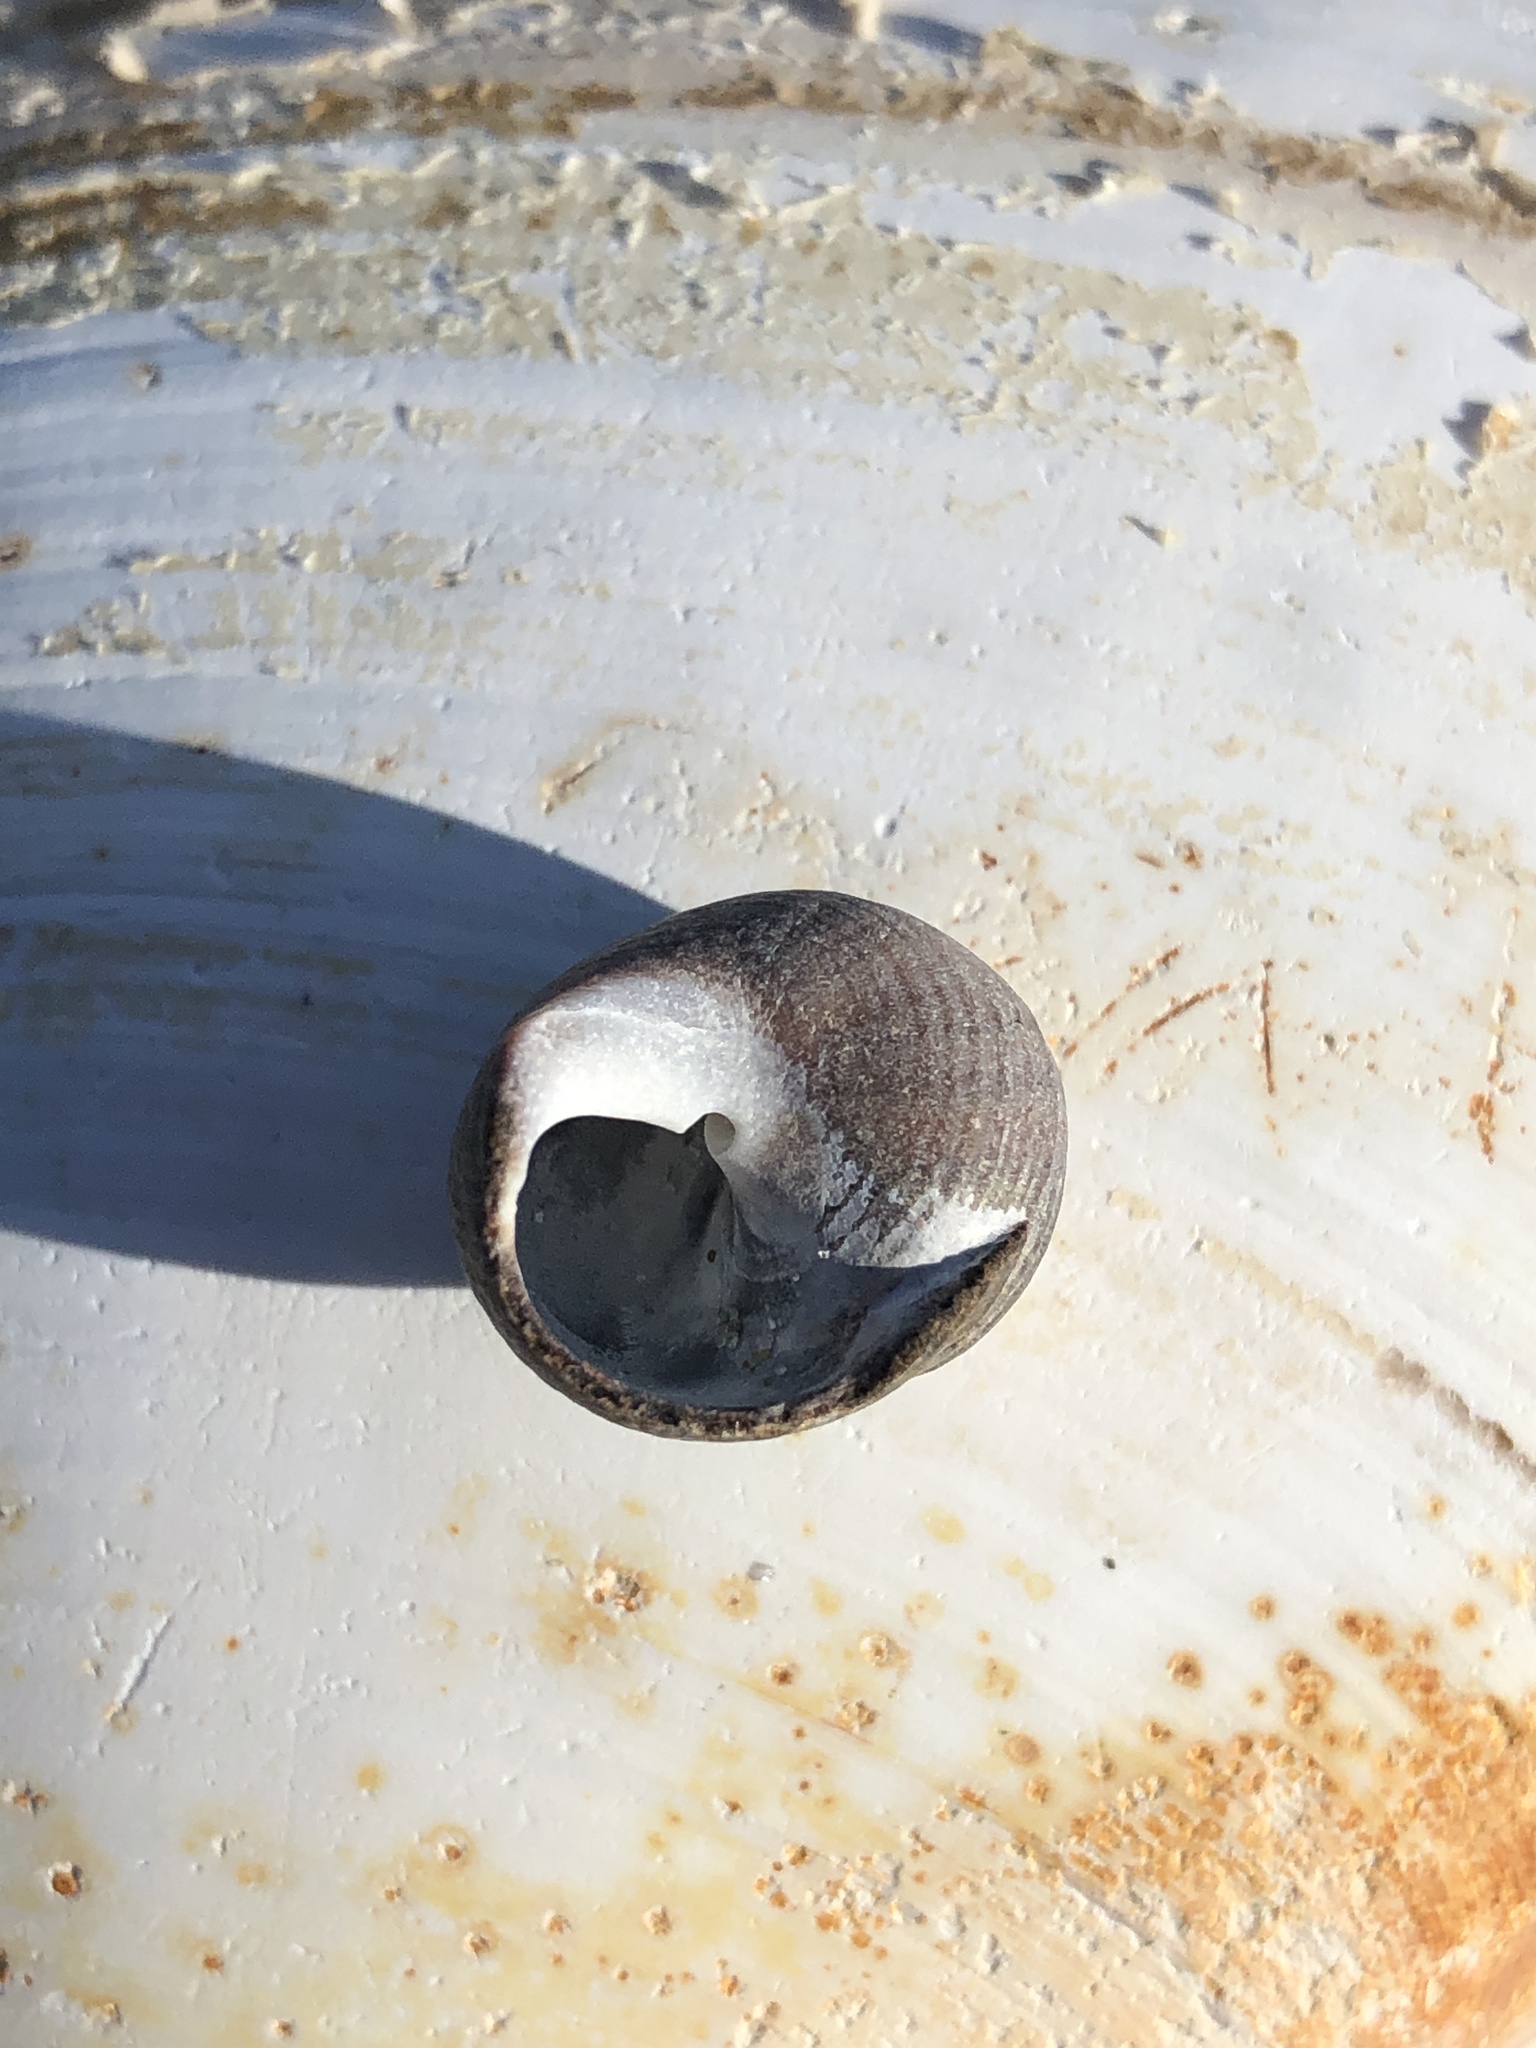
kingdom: Animalia
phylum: Mollusca
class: Gastropoda
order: Littorinimorpha
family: Littorinidae
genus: Littorina
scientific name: Littorina littorea
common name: Common periwinkle
